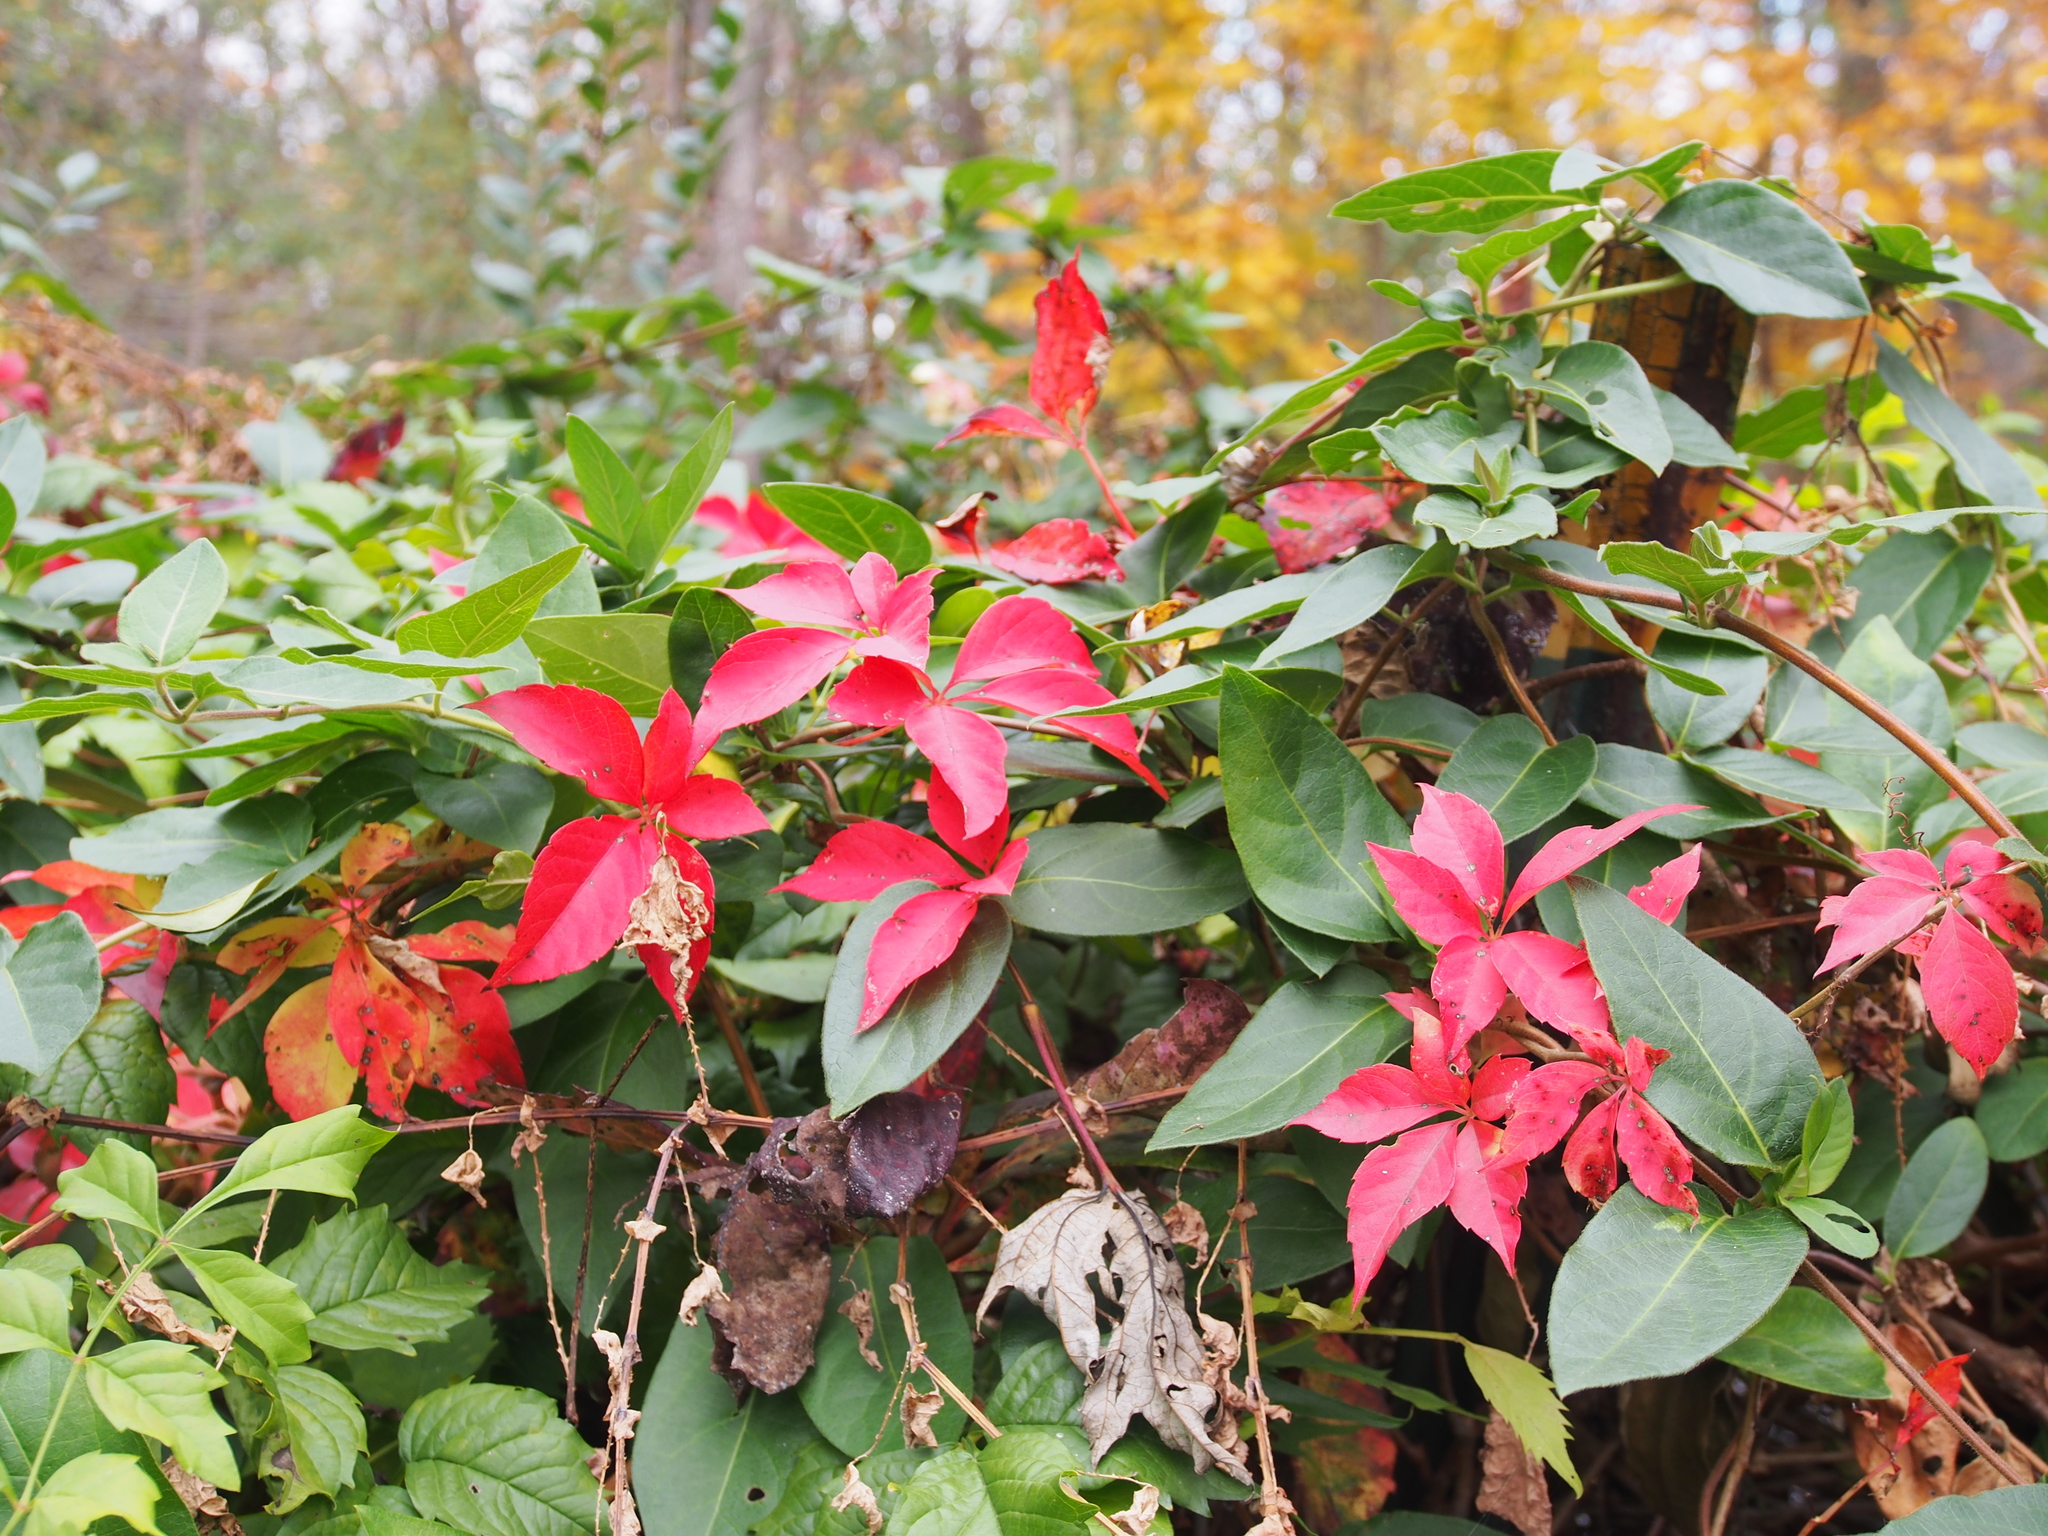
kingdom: Plantae
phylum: Tracheophyta
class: Magnoliopsida
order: Vitales
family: Vitaceae
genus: Parthenocissus
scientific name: Parthenocissus quinquefolia
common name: Virginia-creeper
